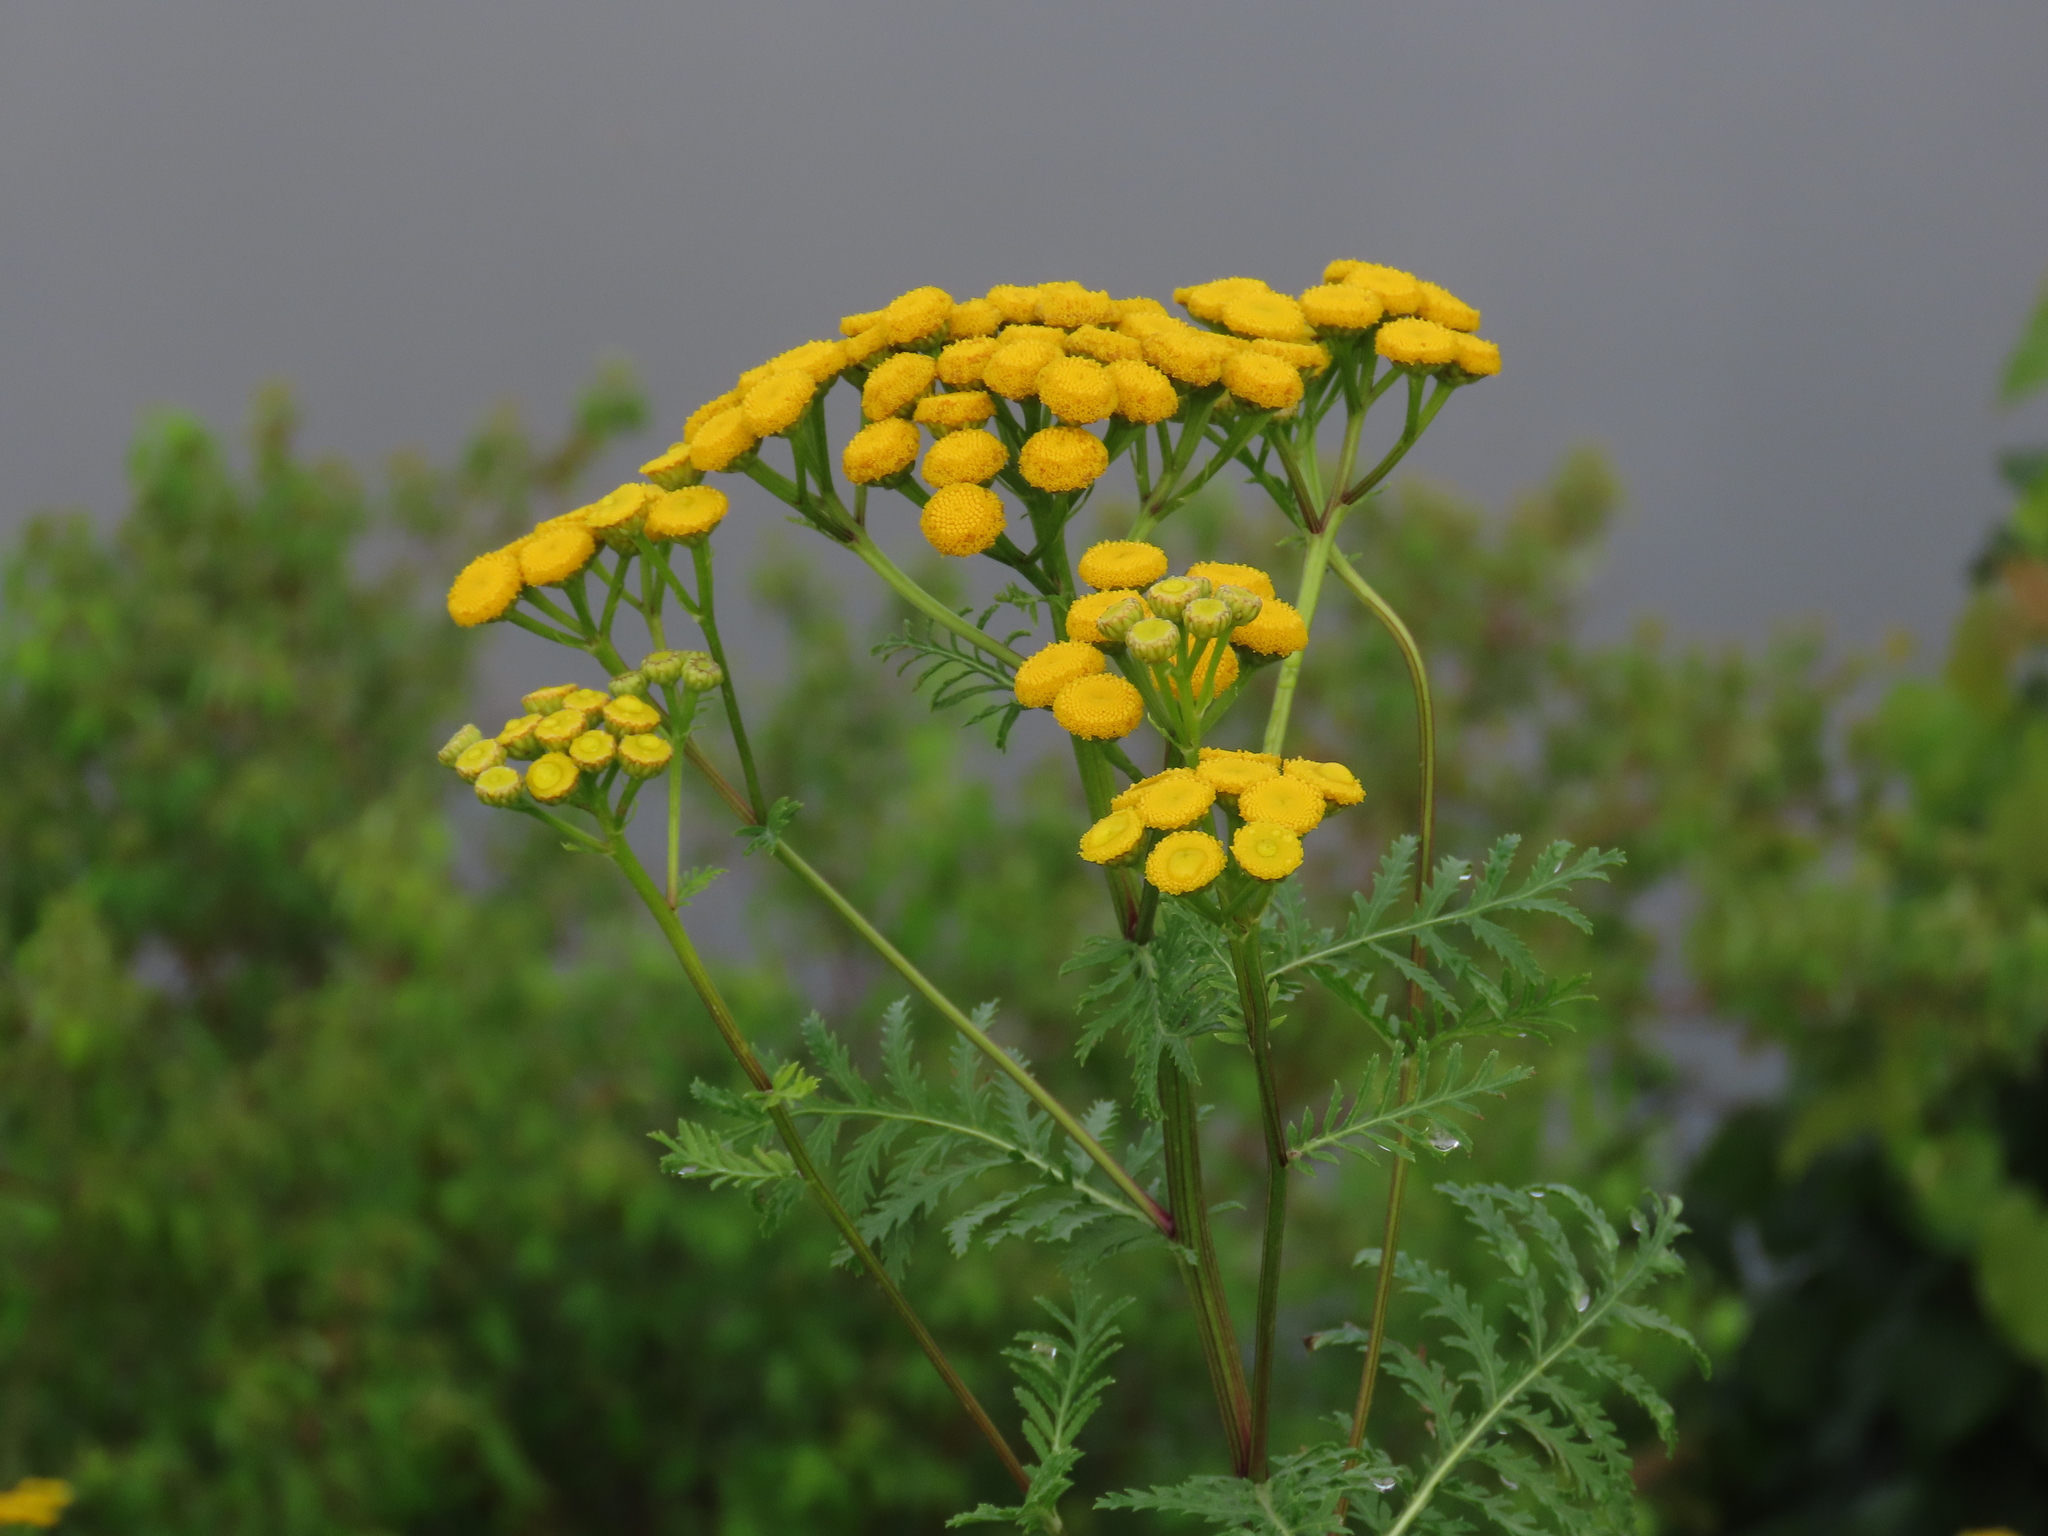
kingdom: Plantae
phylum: Tracheophyta
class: Magnoliopsida
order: Asterales
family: Asteraceae
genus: Tanacetum
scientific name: Tanacetum vulgare
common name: Common tansy
